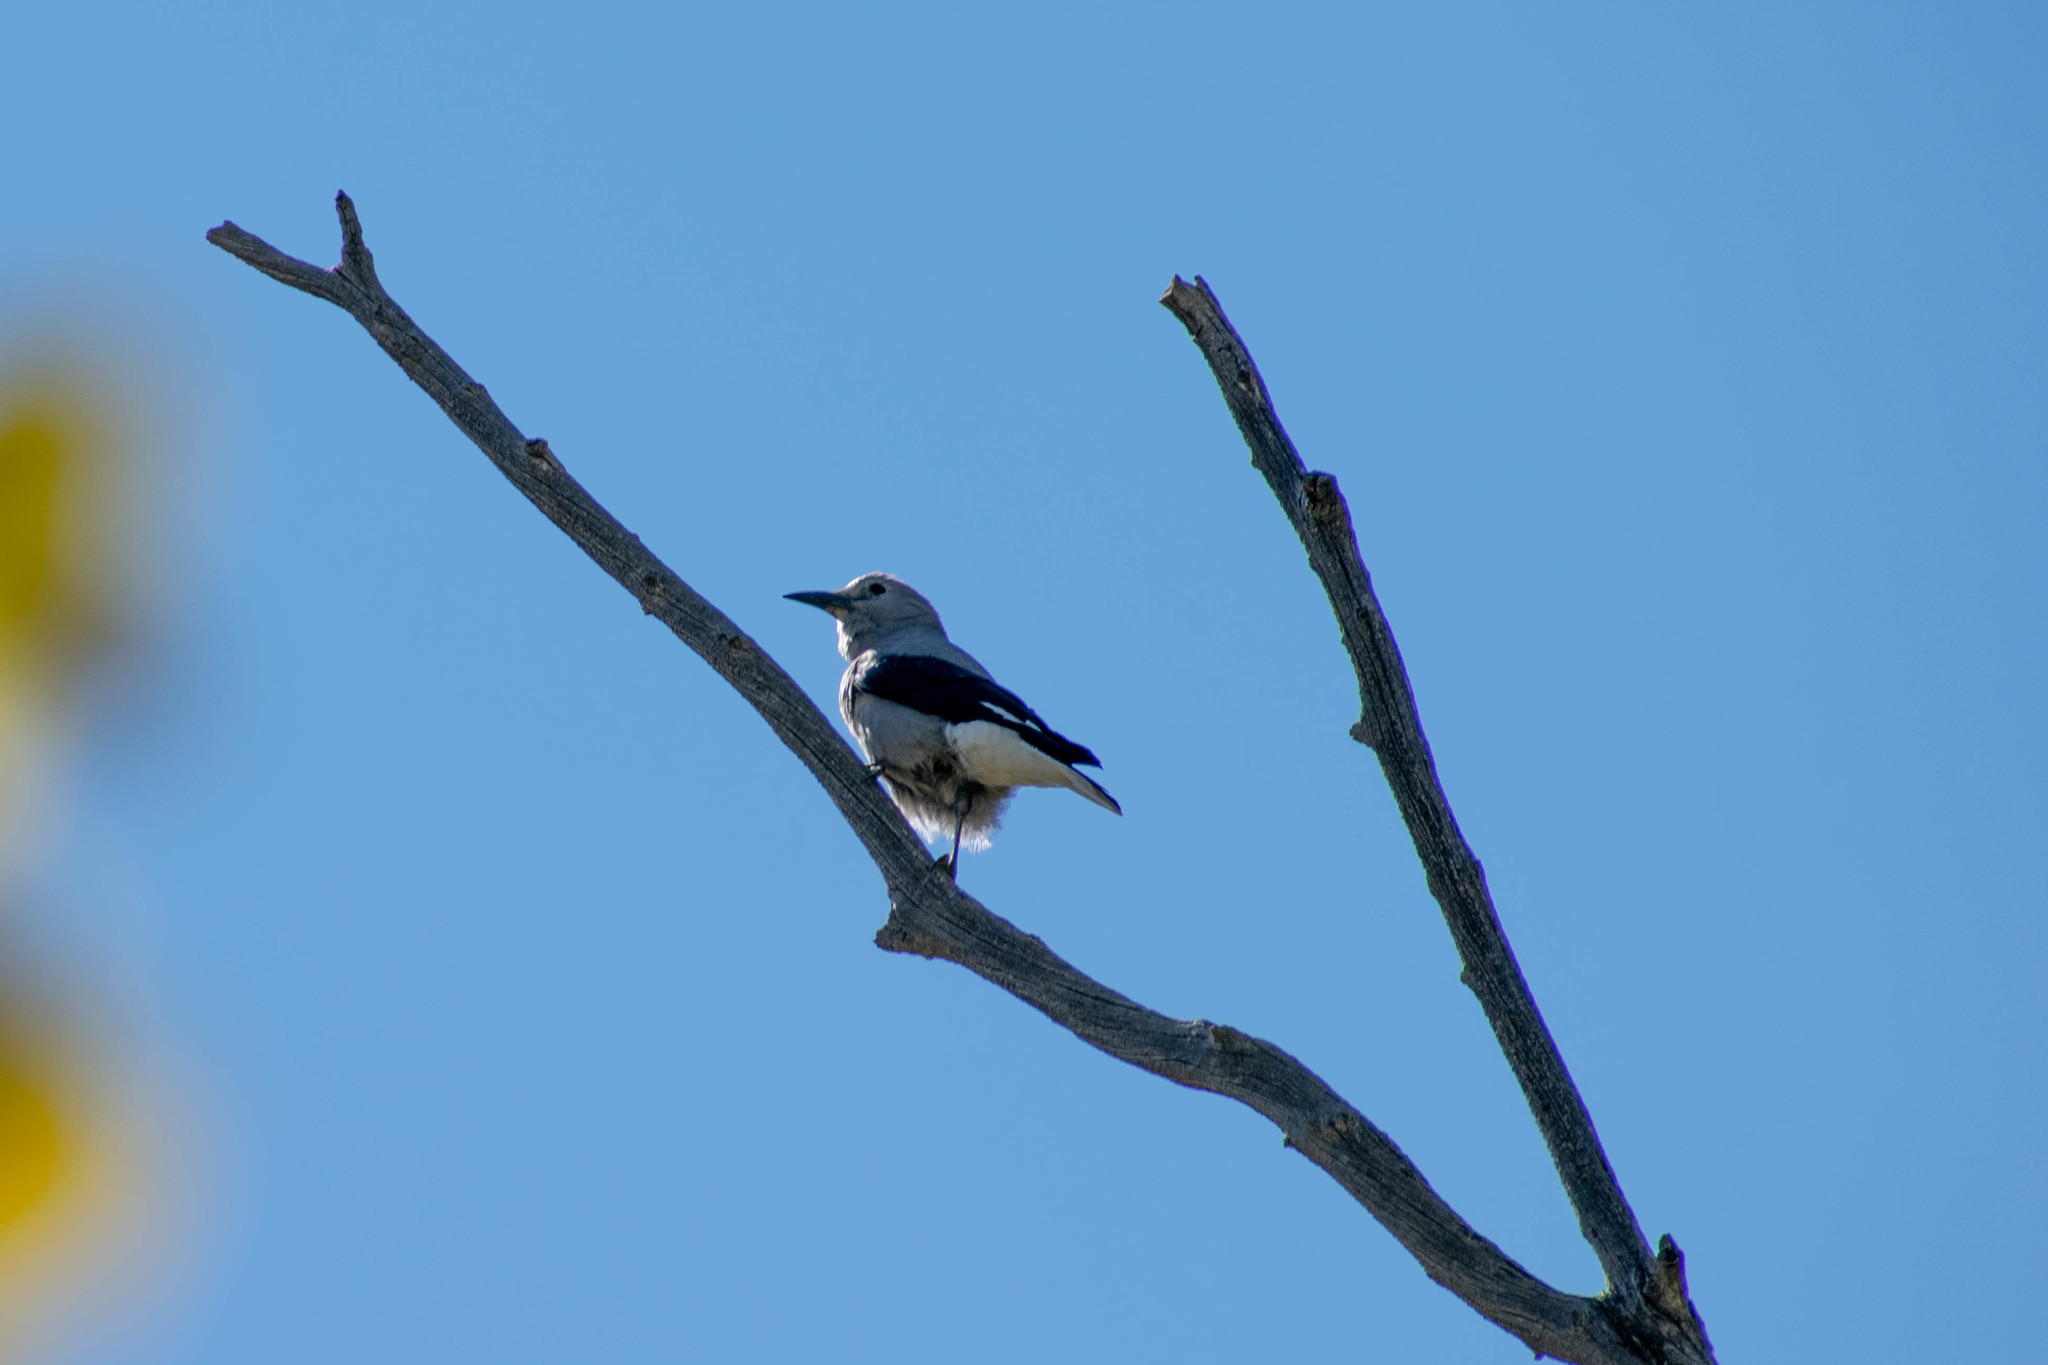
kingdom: Animalia
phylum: Chordata
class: Aves
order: Passeriformes
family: Corvidae
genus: Nucifraga
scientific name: Nucifraga columbiana
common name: Clark's nutcracker
